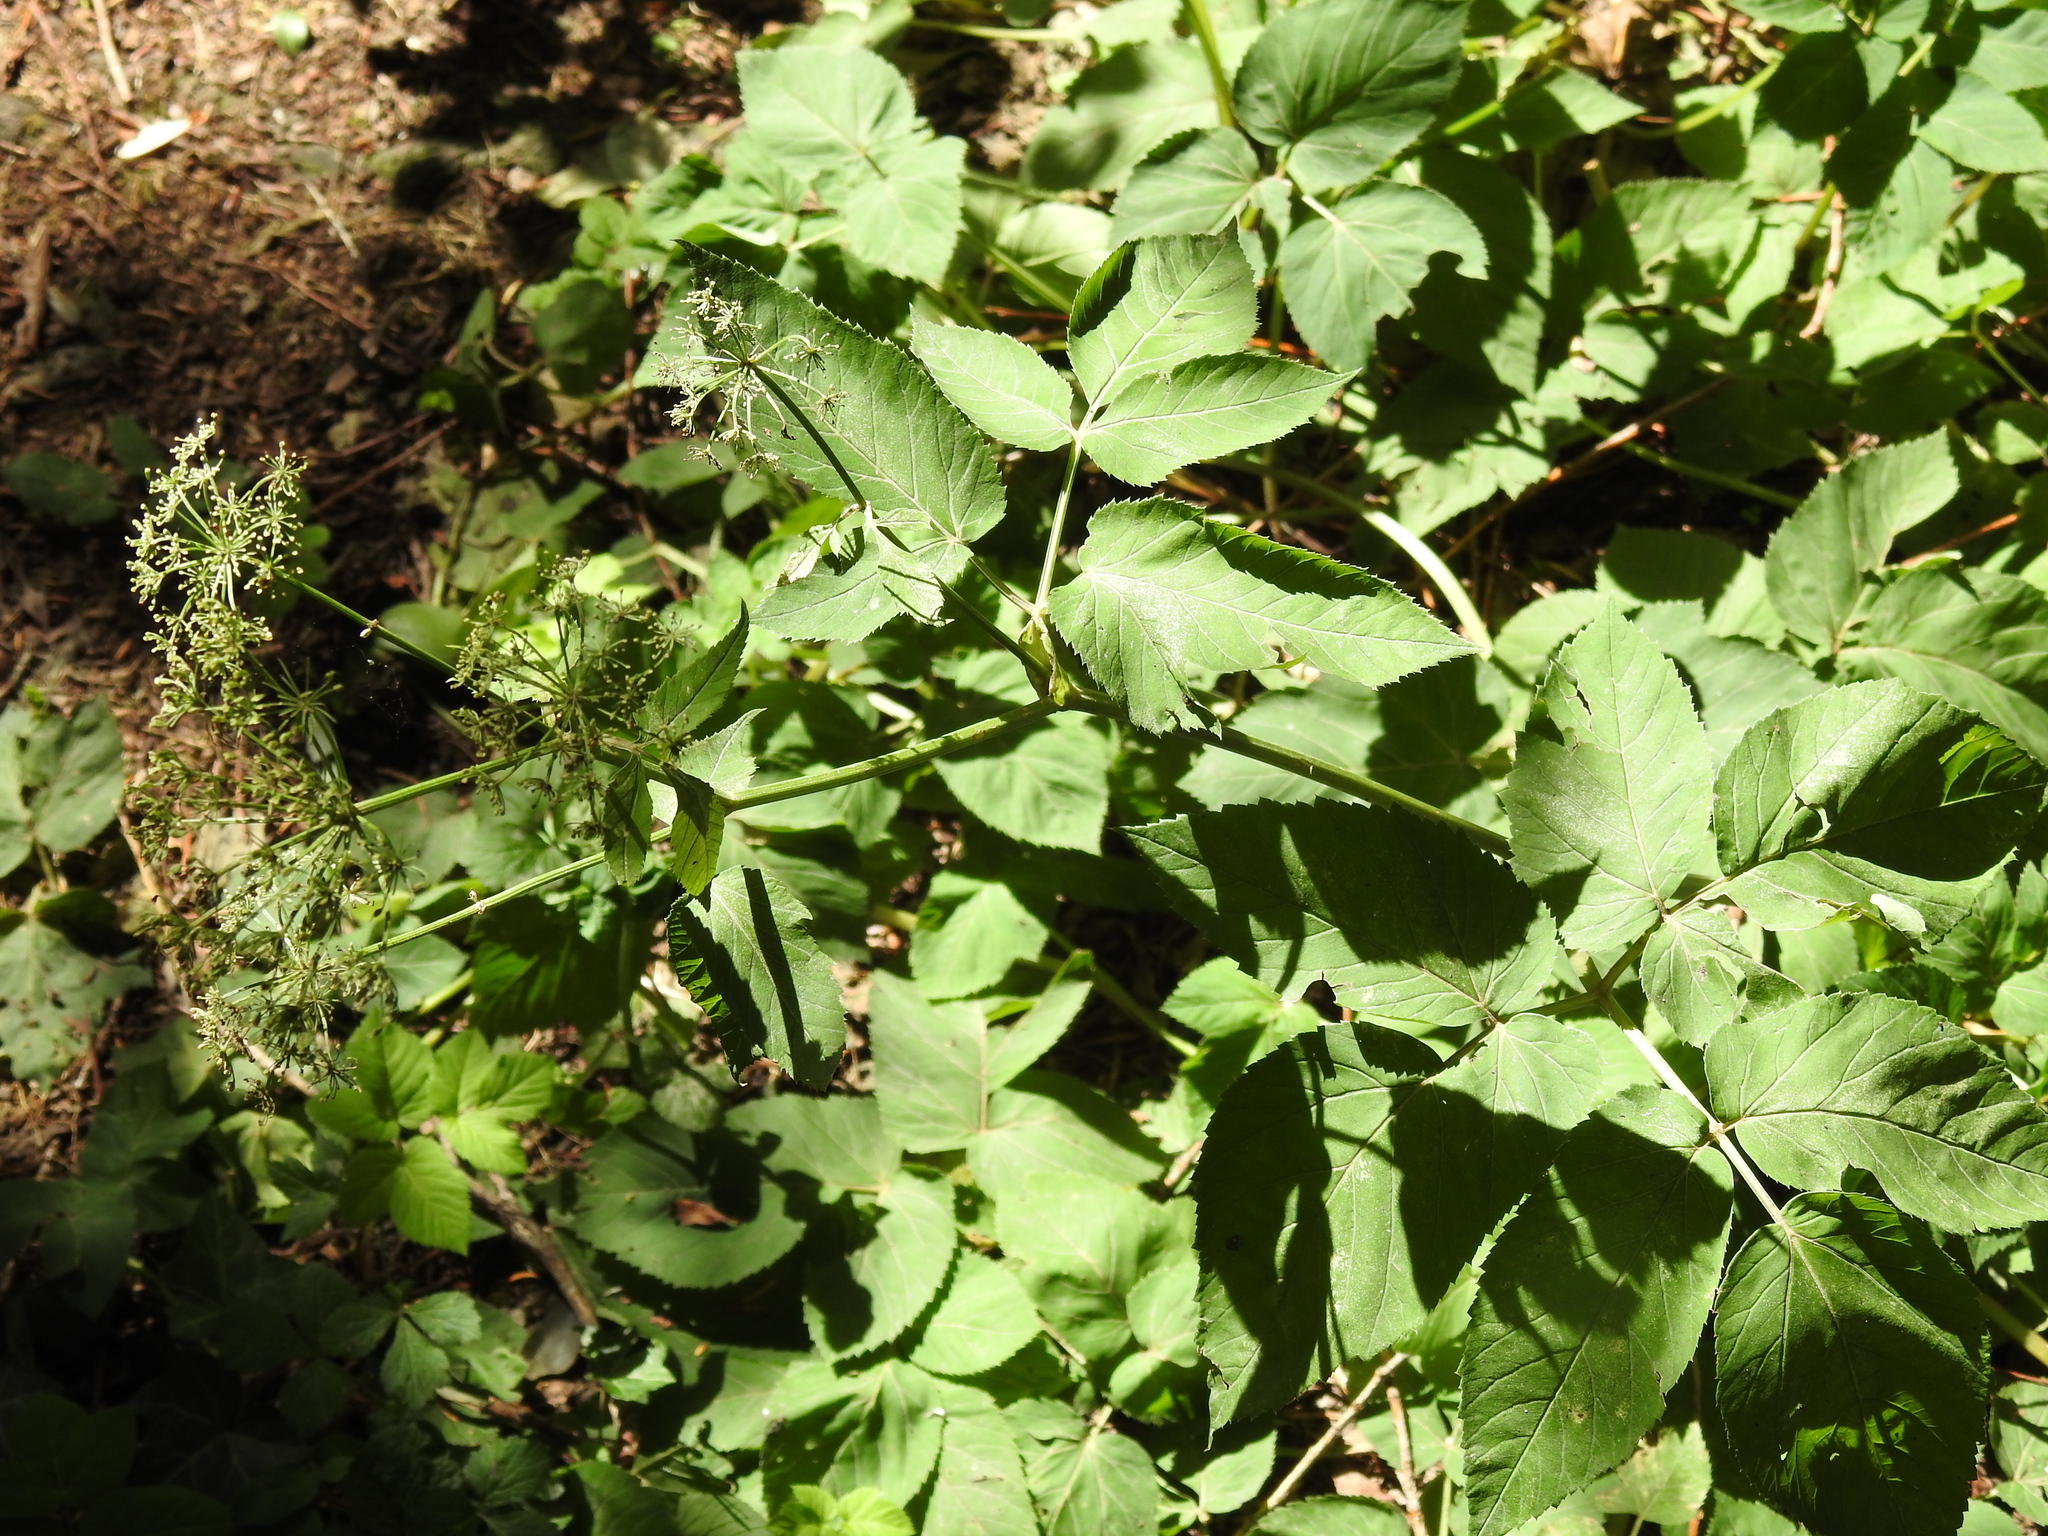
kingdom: Plantae
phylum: Tracheophyta
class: Magnoliopsida
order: Apiales
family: Apiaceae
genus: Aegopodium
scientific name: Aegopodium podagraria
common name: Ground-elder
